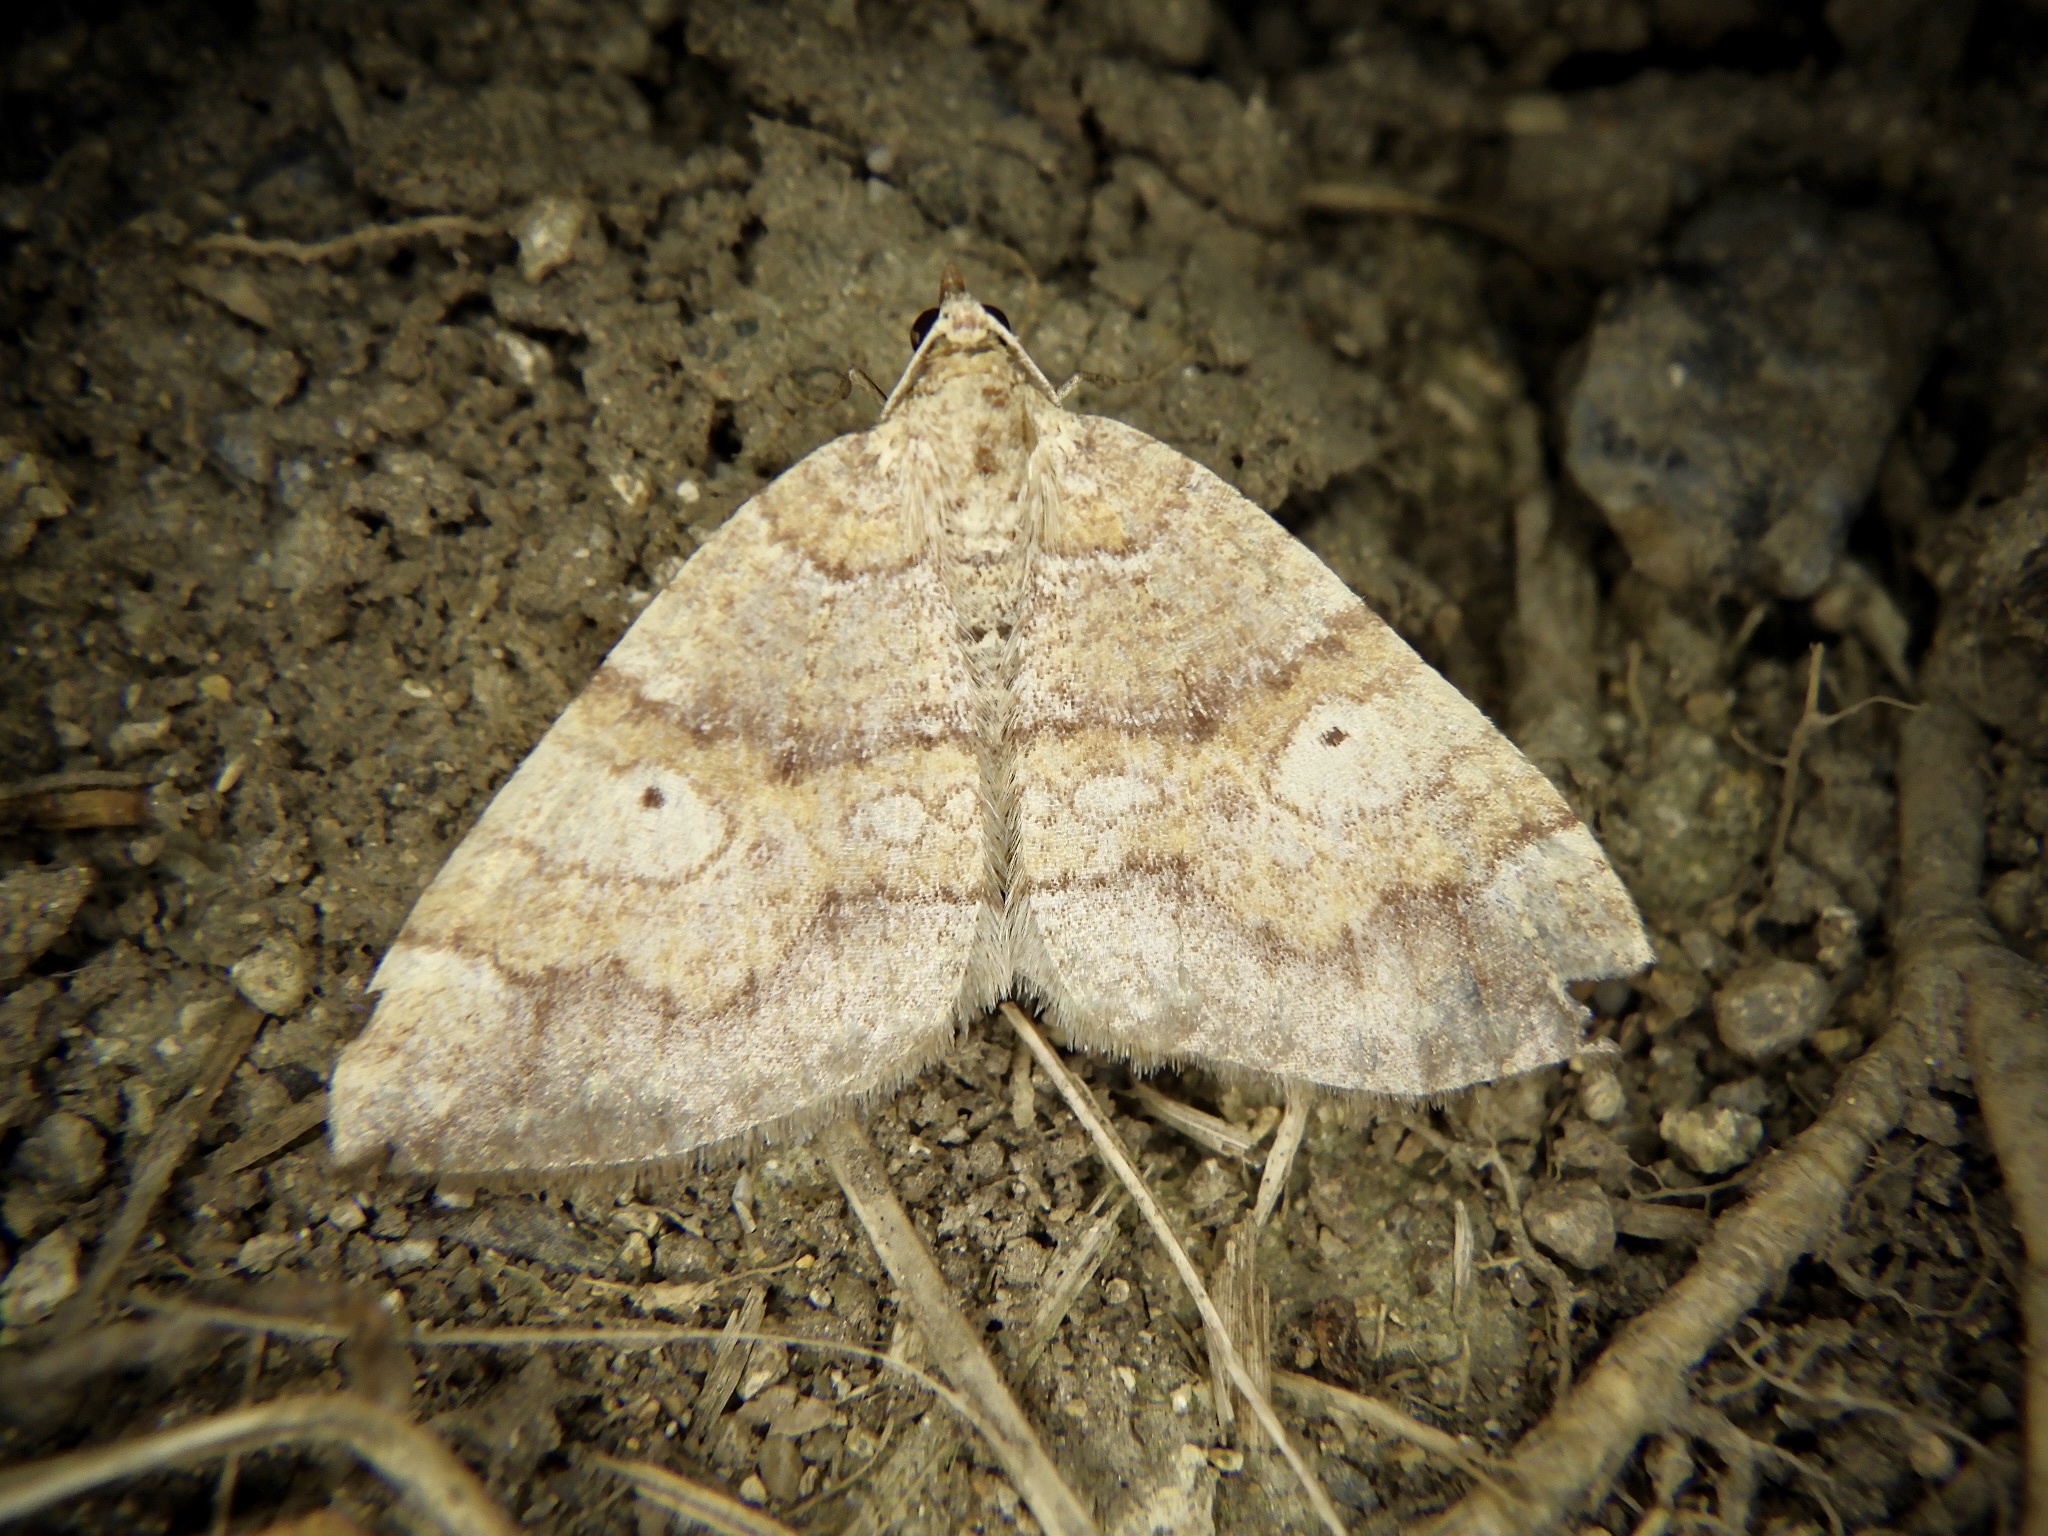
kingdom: Animalia
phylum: Arthropoda
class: Insecta
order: Lepidoptera
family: Geometridae
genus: Idiotephria
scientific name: Idiotephria evanescens
